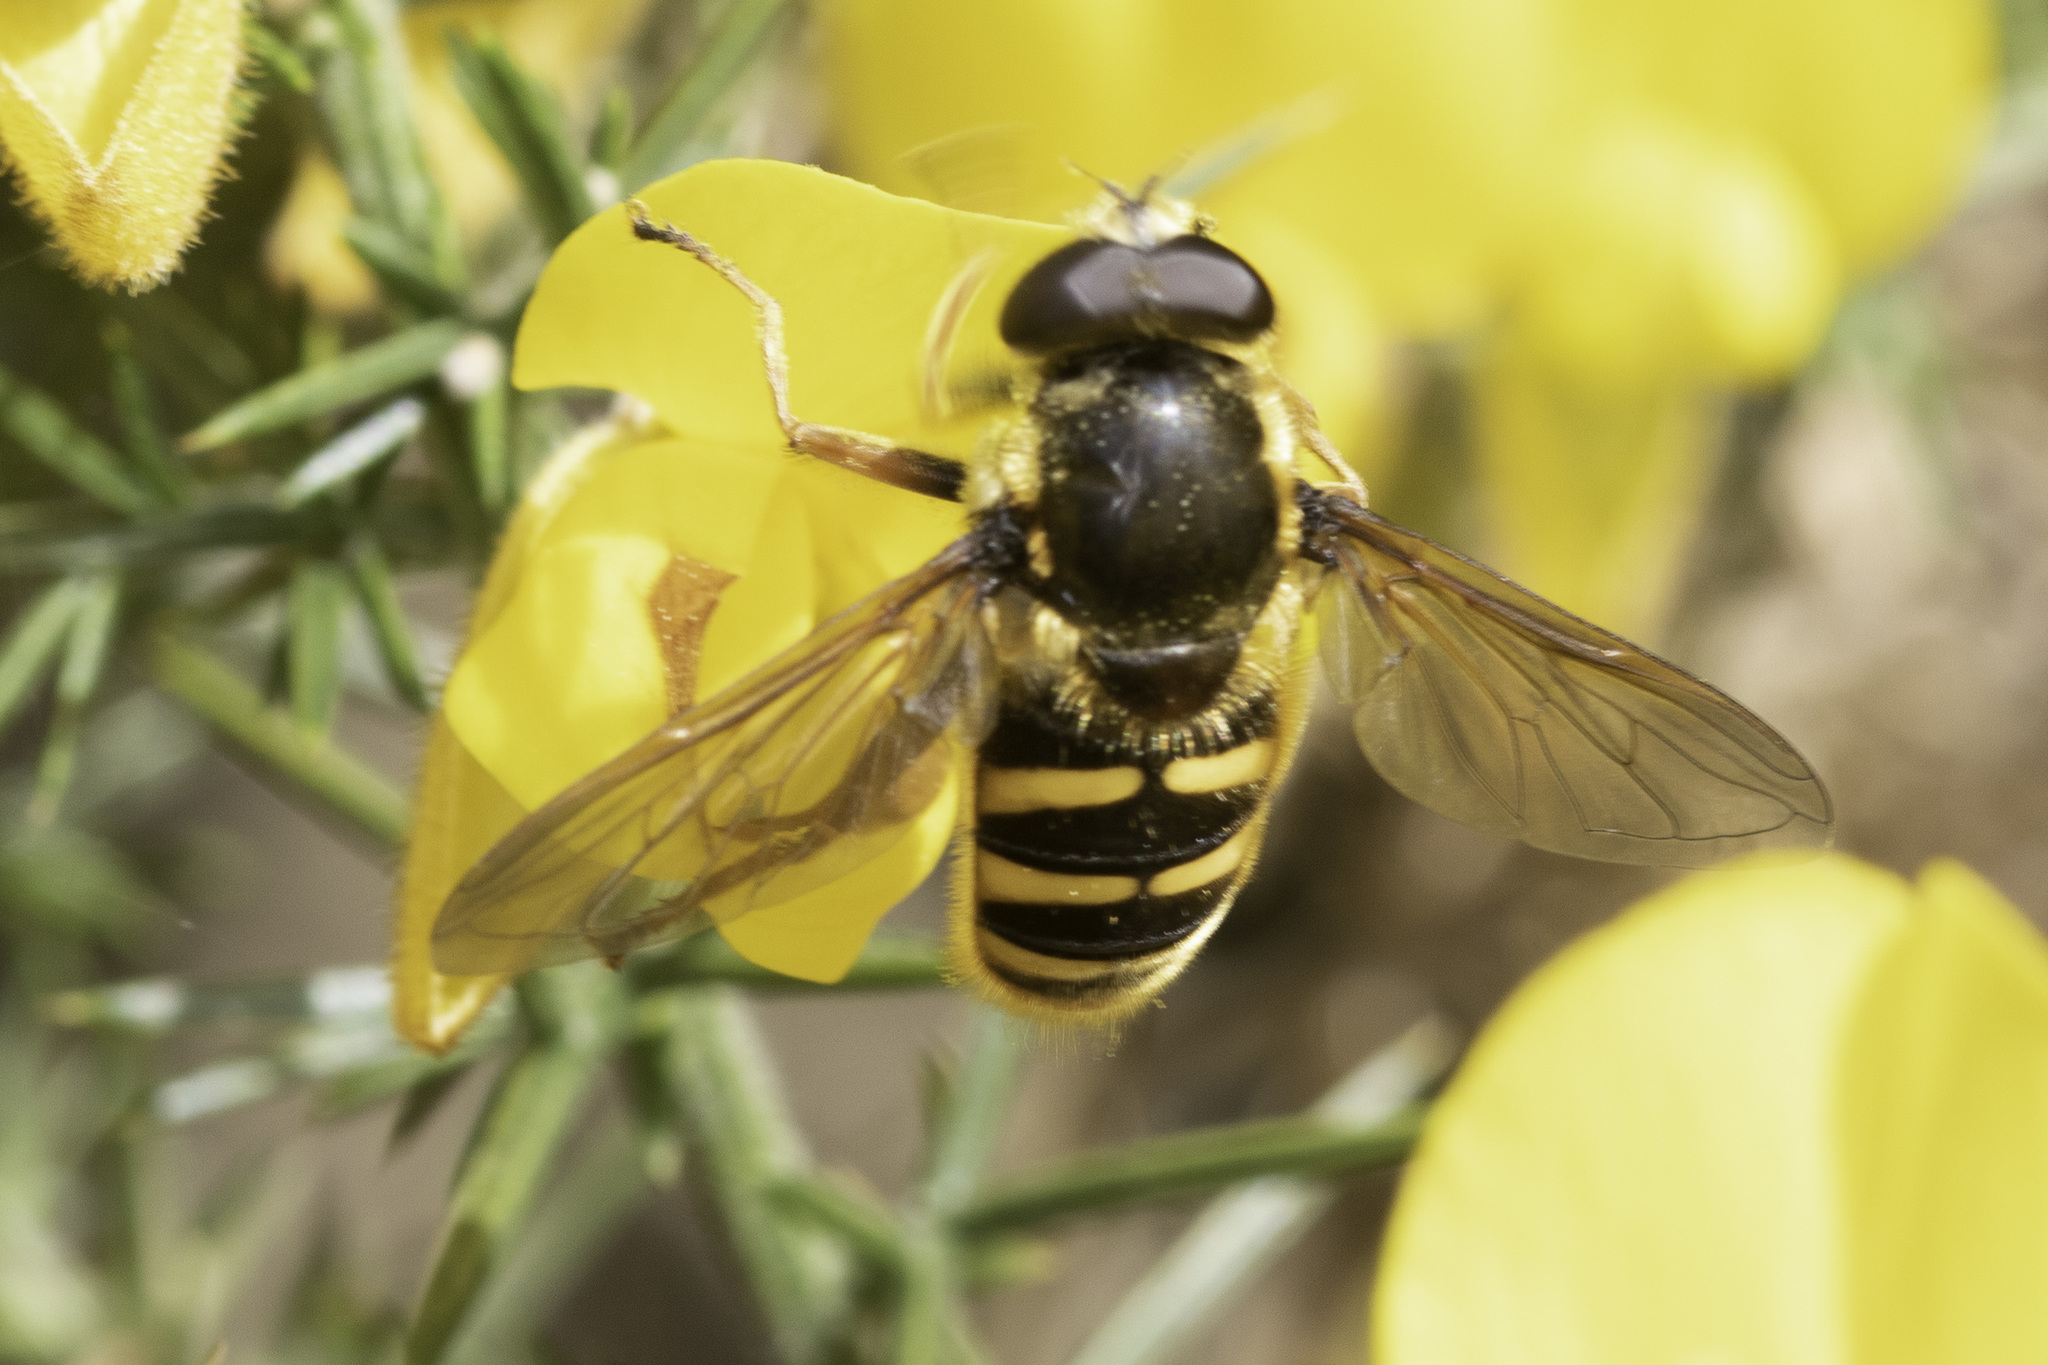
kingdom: Animalia
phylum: Arthropoda
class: Insecta
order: Diptera
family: Syrphidae
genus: Syrphus
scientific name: Syrphus torvus
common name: Hairy-eyed flower fly
